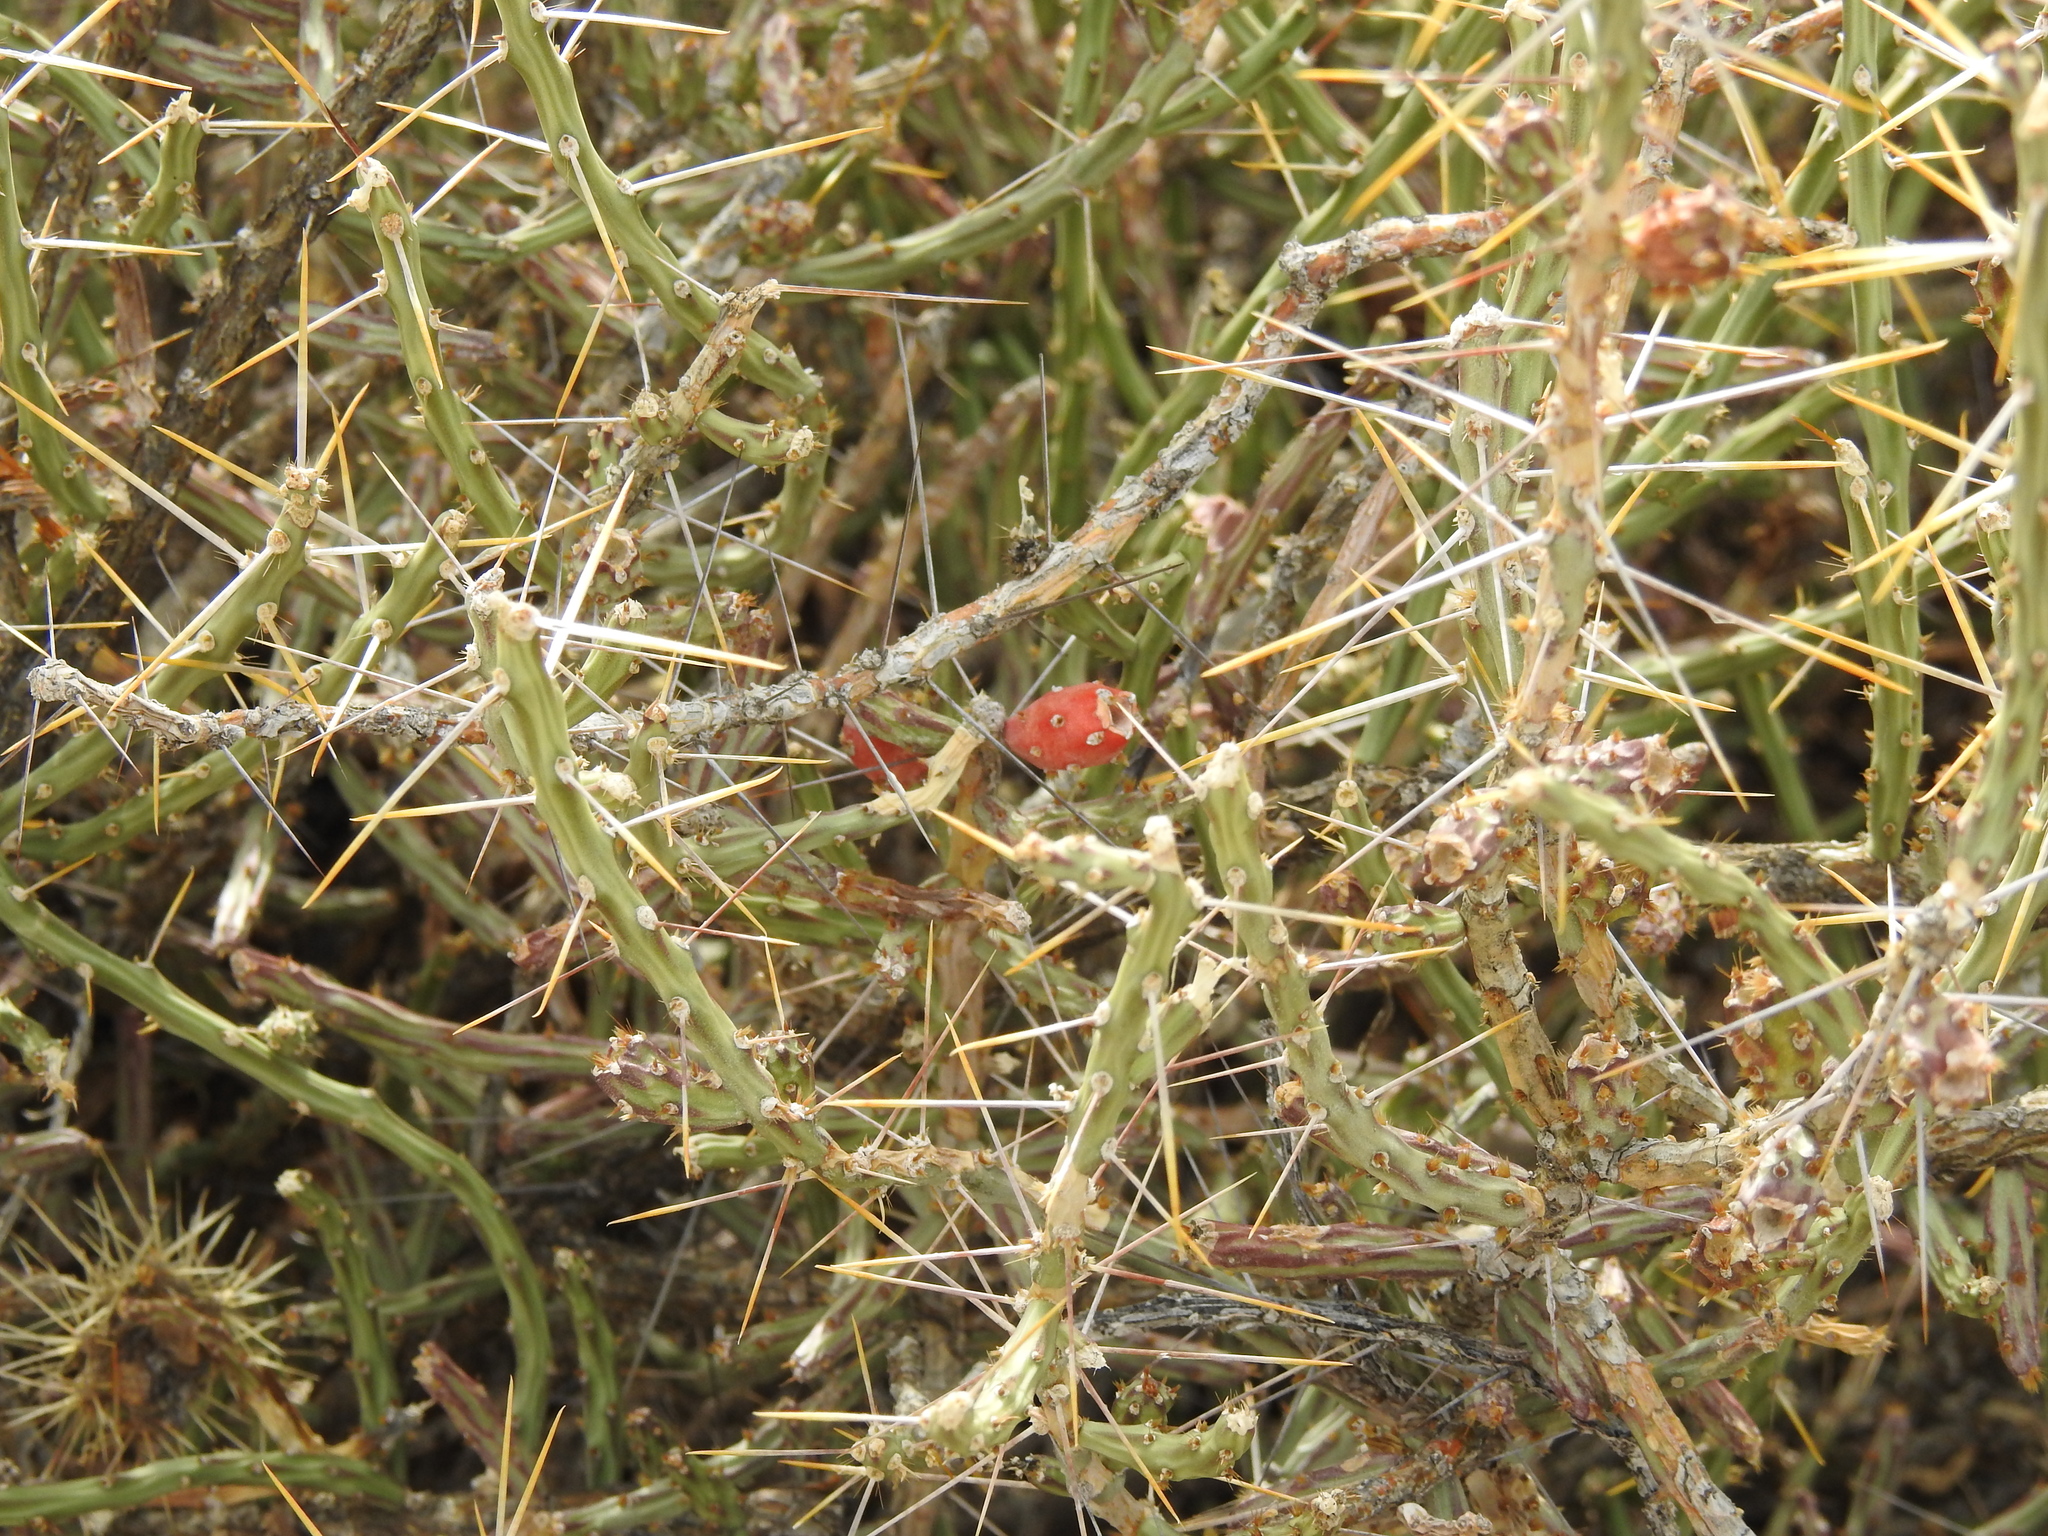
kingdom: Plantae
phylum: Tracheophyta
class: Magnoliopsida
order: Caryophyllales
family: Cactaceae
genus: Cylindropuntia
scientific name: Cylindropuntia leptocaulis
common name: Christmas cactus
